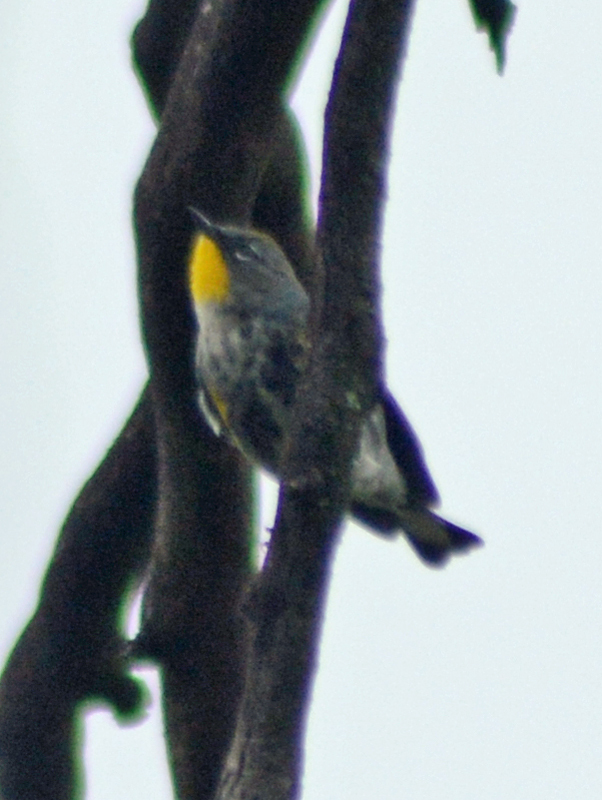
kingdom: Animalia
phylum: Chordata
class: Aves
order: Passeriformes
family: Parulidae
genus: Setophaga
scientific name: Setophaga auduboni
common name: Audubon's warbler
